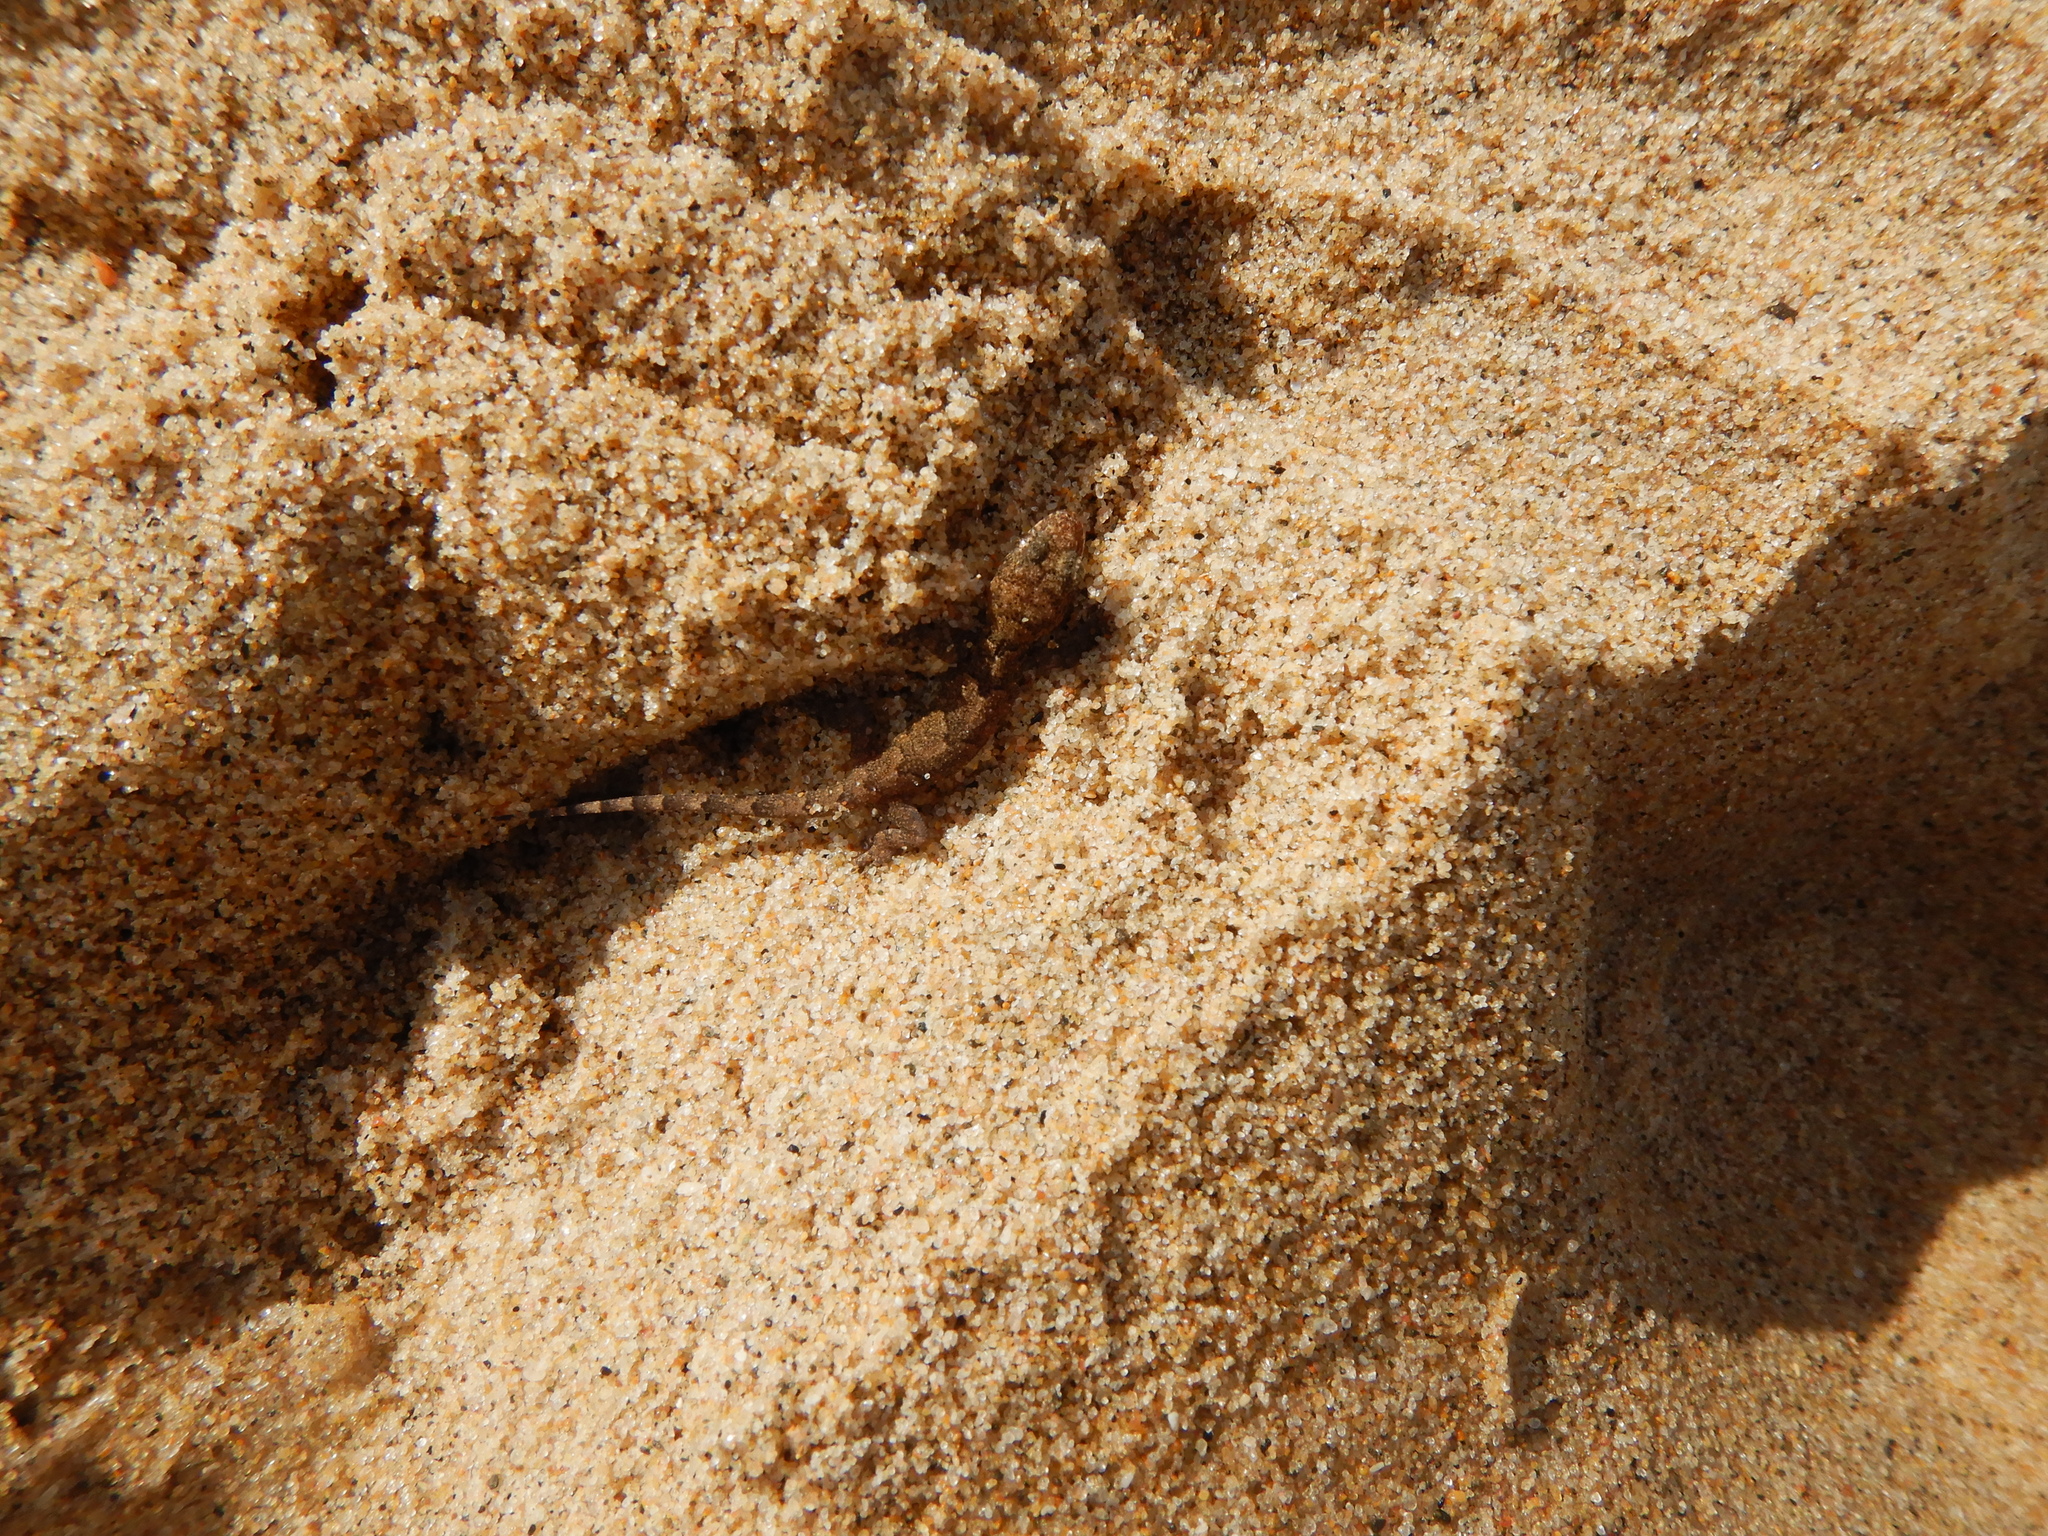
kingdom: Animalia
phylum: Chordata
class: Squamata
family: Gekkonidae
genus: Hemidactylus
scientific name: Hemidactylus mabouia
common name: House gecko
